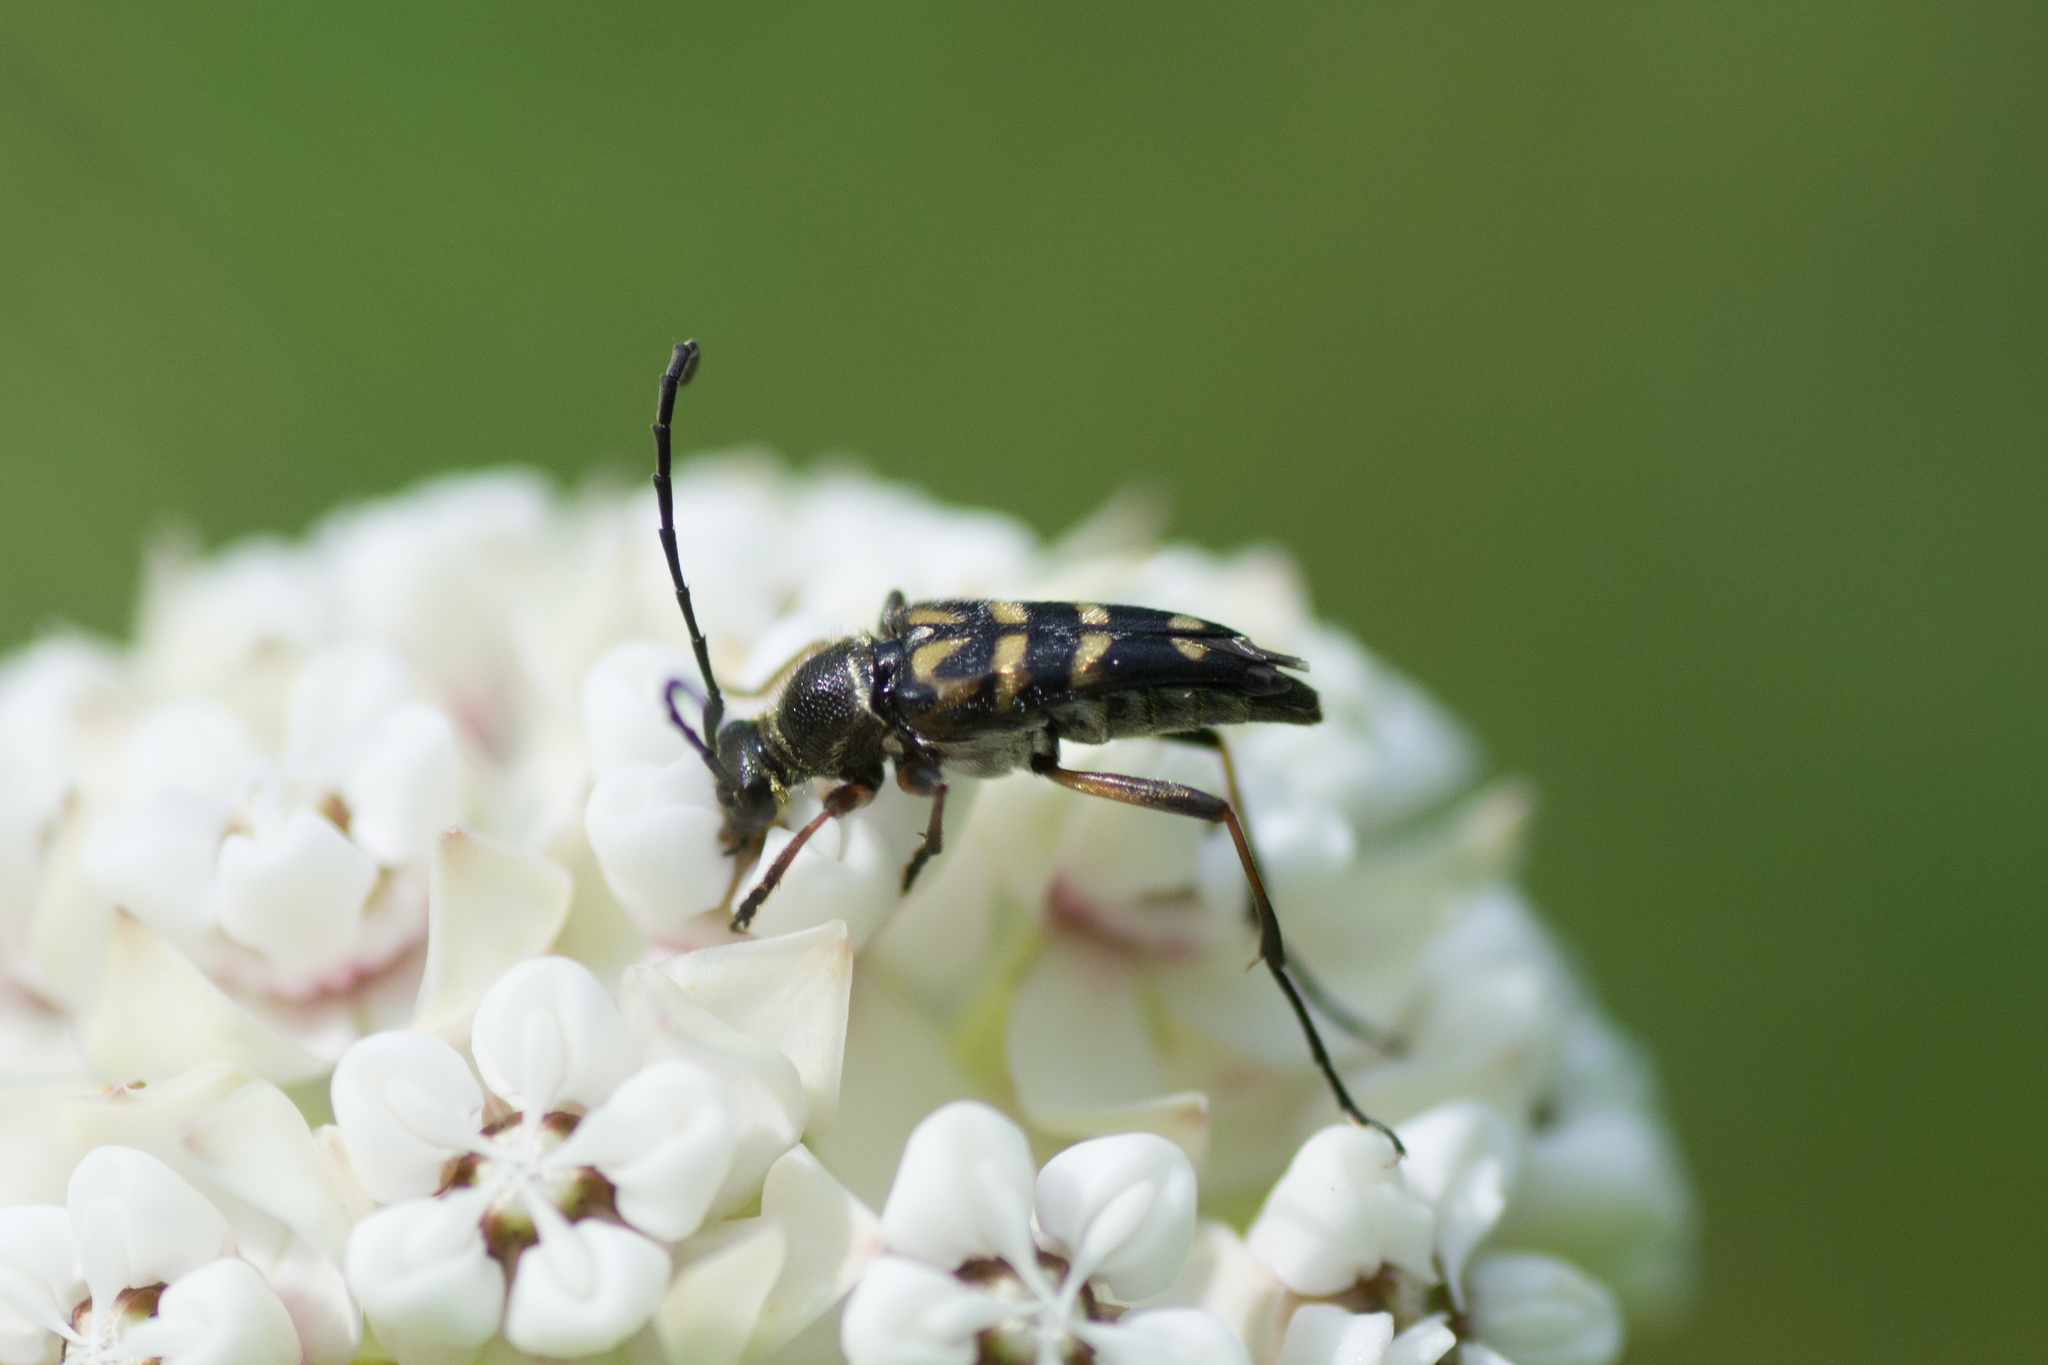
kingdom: Animalia
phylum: Arthropoda
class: Insecta
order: Coleoptera
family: Cerambycidae
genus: Typocerus
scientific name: Typocerus zebra
